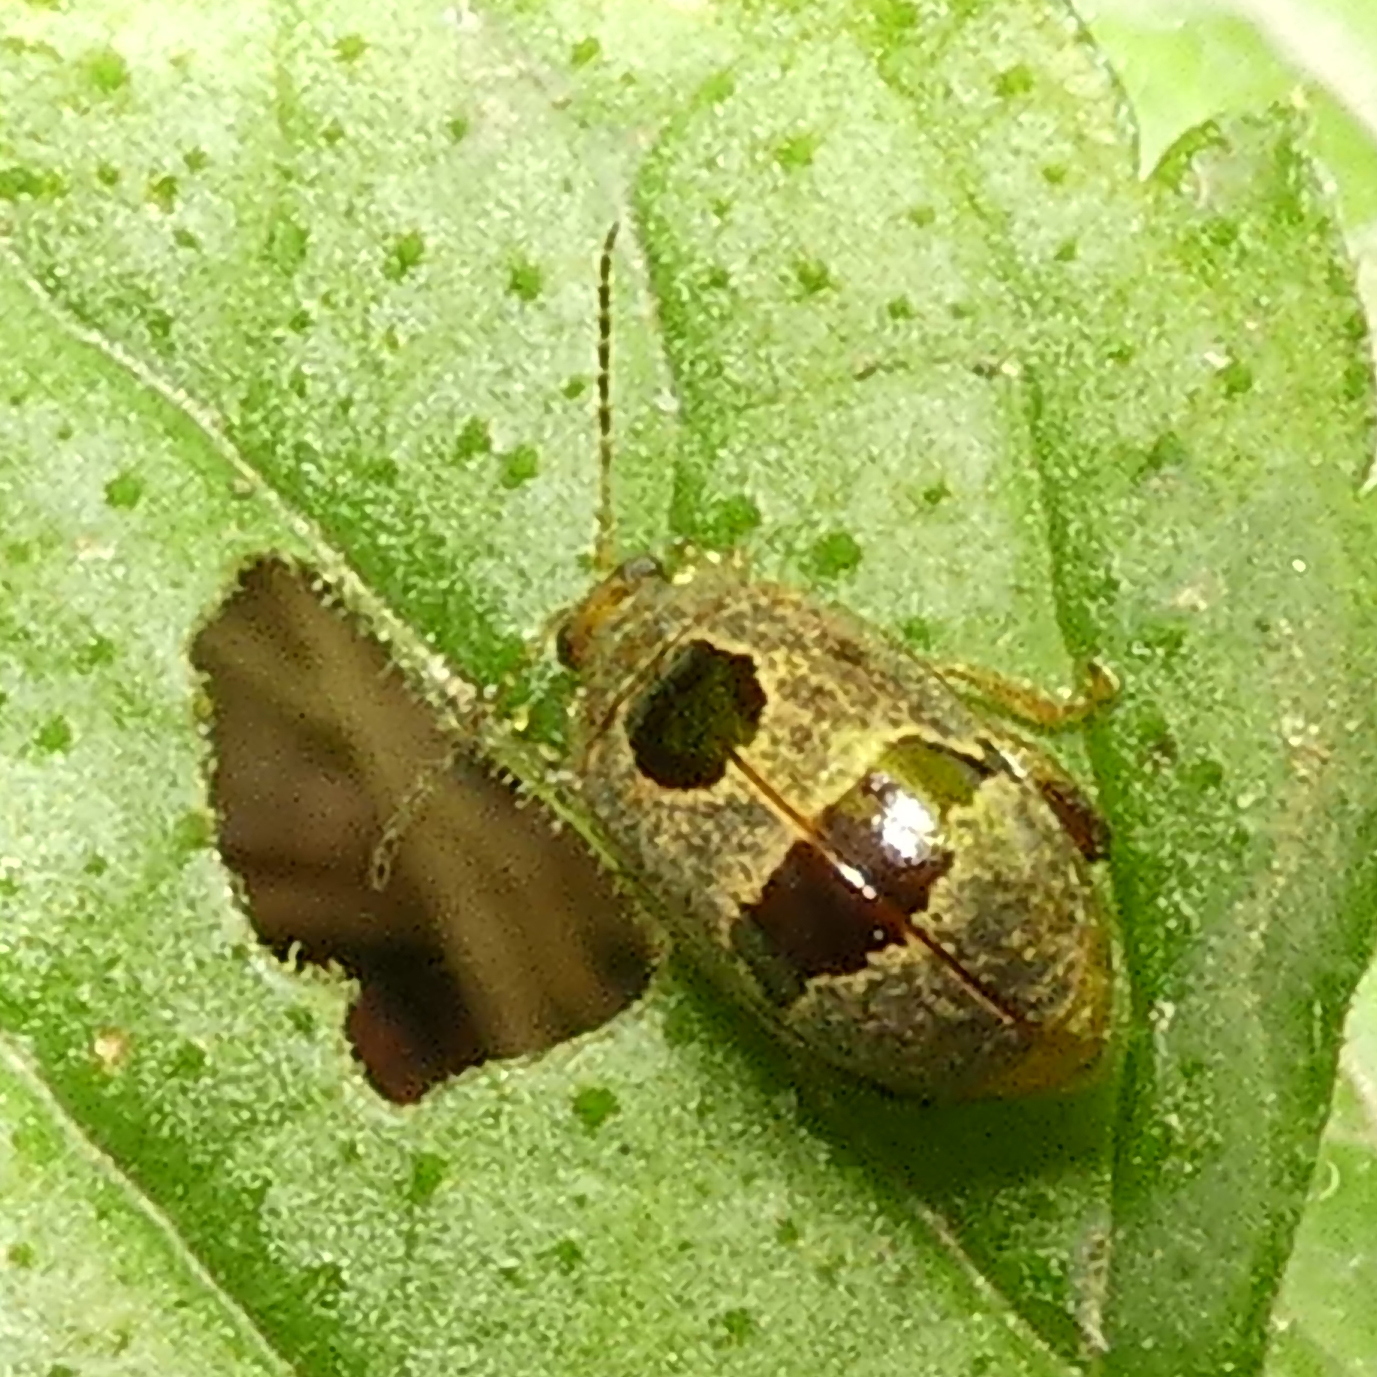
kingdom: Animalia
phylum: Arthropoda
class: Insecta
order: Coleoptera
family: Chrysomelidae
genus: Alagoasa
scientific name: Alagoasa
